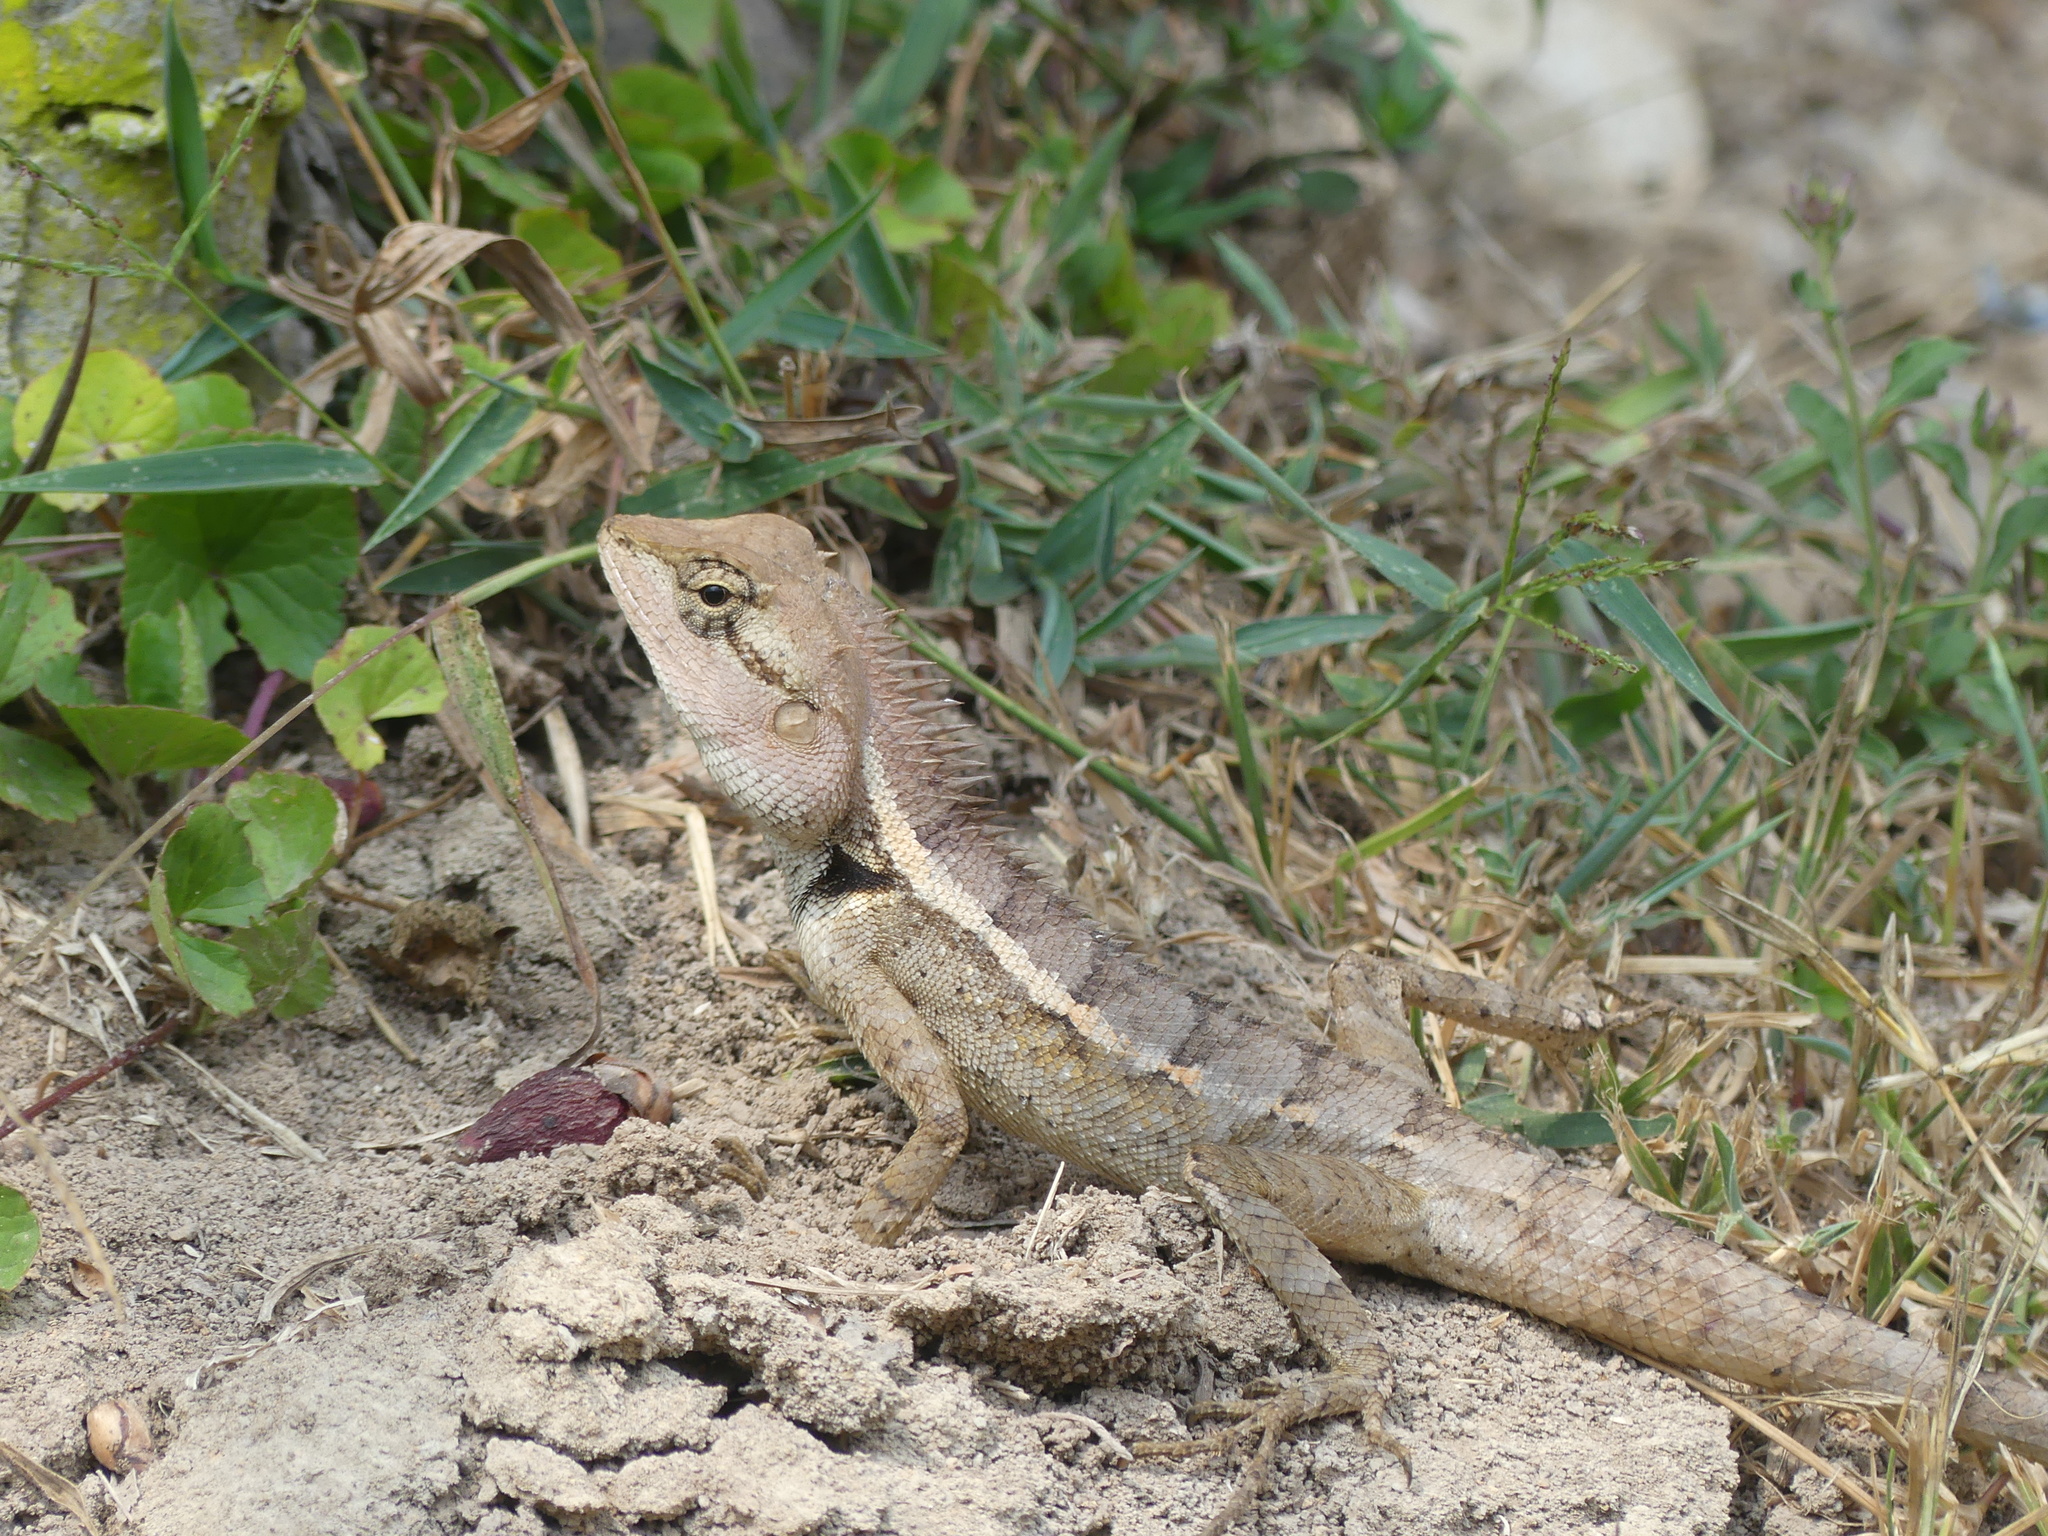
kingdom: Animalia
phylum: Chordata
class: Squamata
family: Agamidae
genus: Calotes
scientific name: Calotes emma
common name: Thailand bloodsucker
